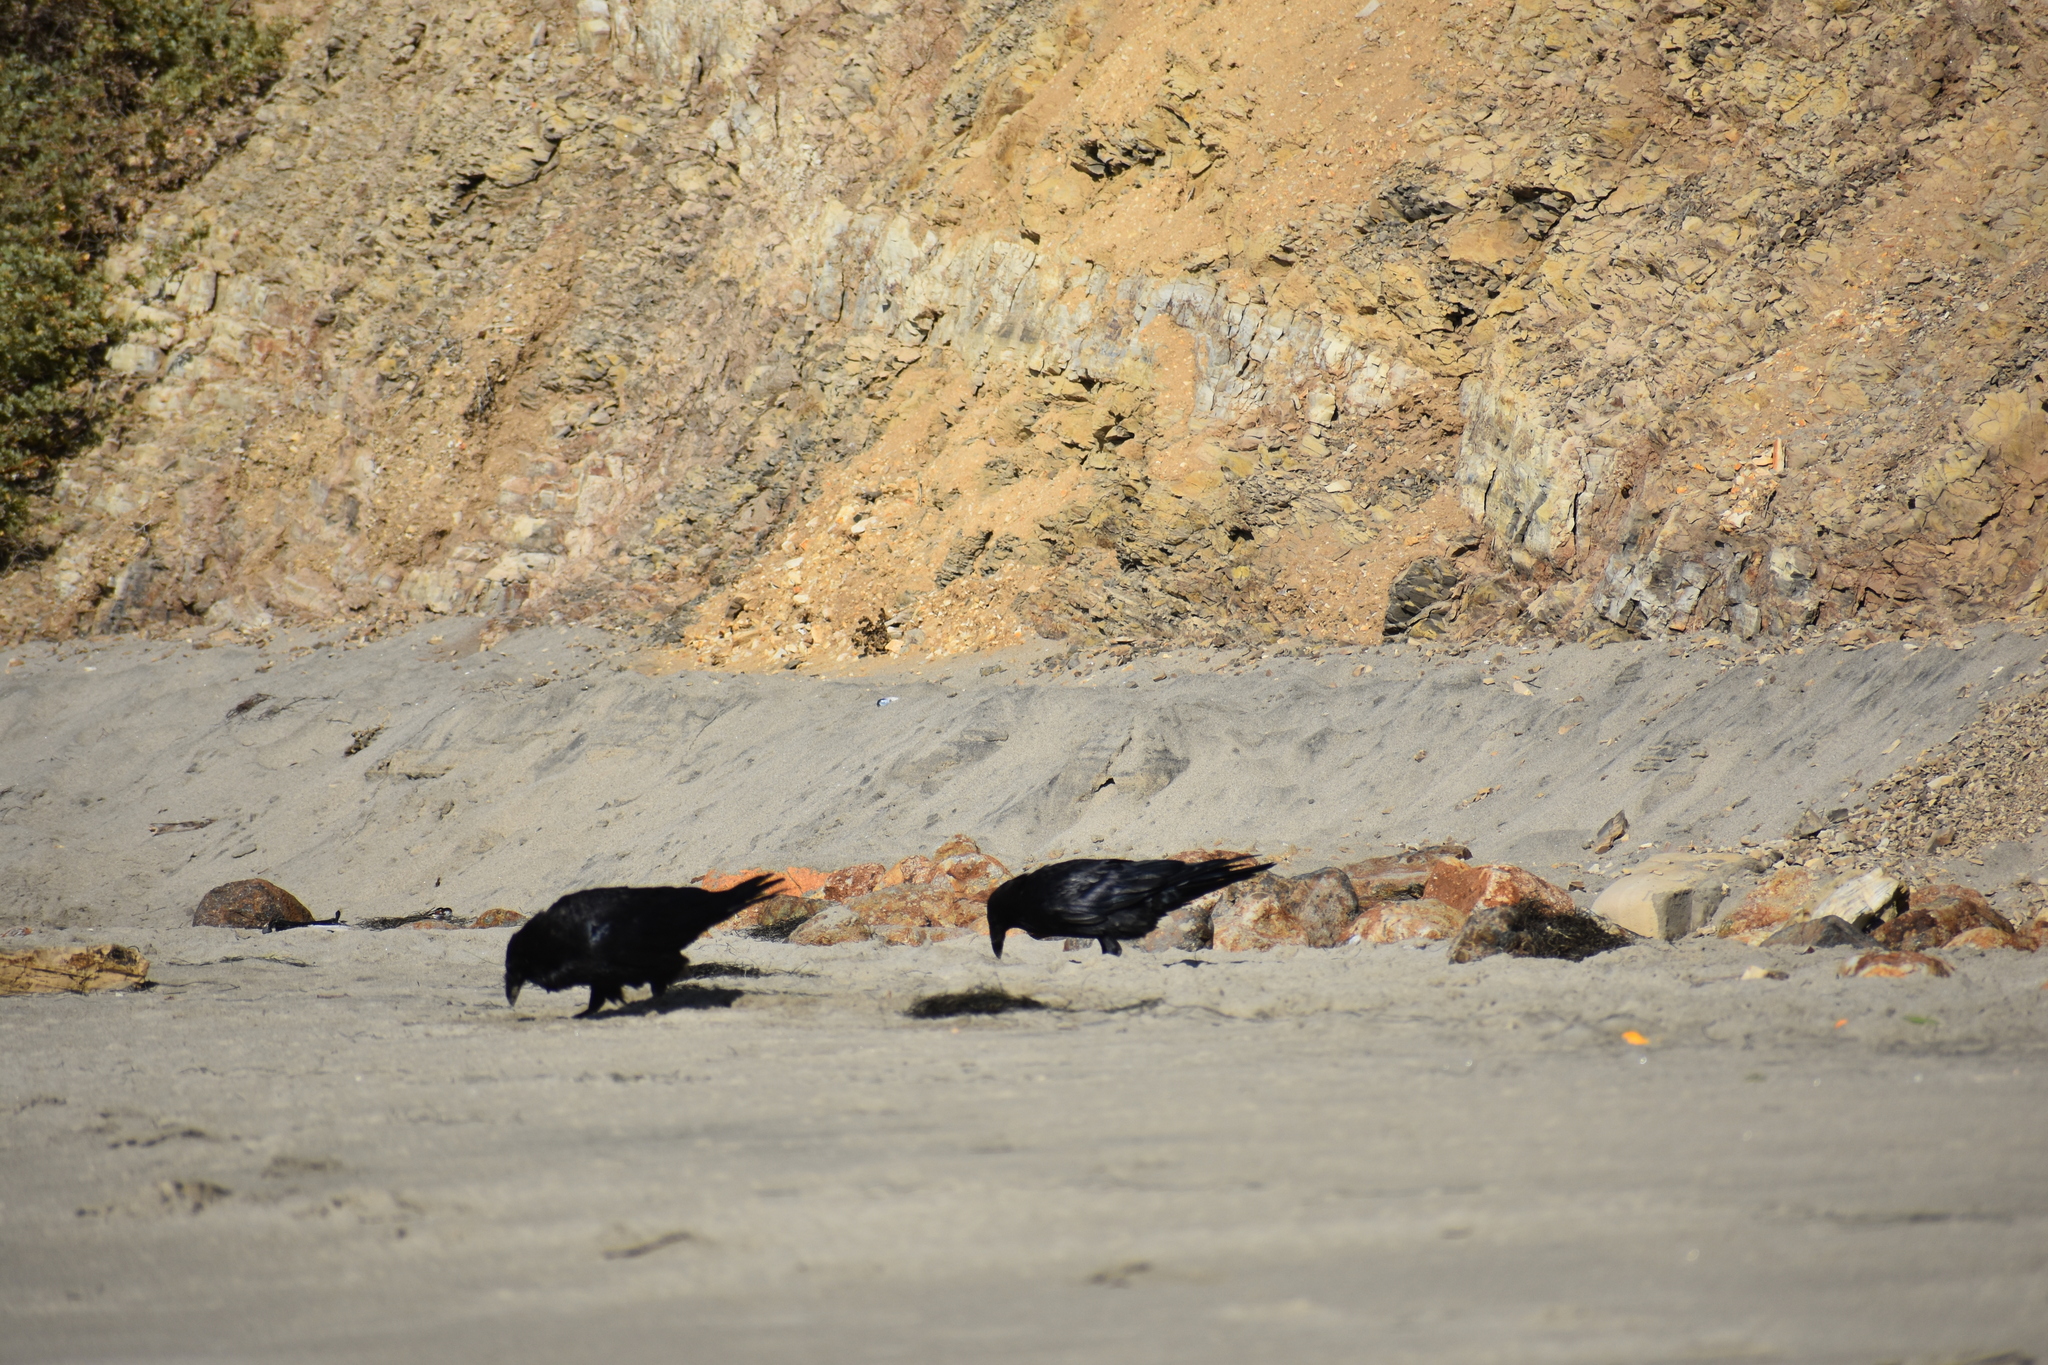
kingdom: Animalia
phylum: Chordata
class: Aves
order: Passeriformes
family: Corvidae
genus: Corvus
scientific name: Corvus corax
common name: Common raven
